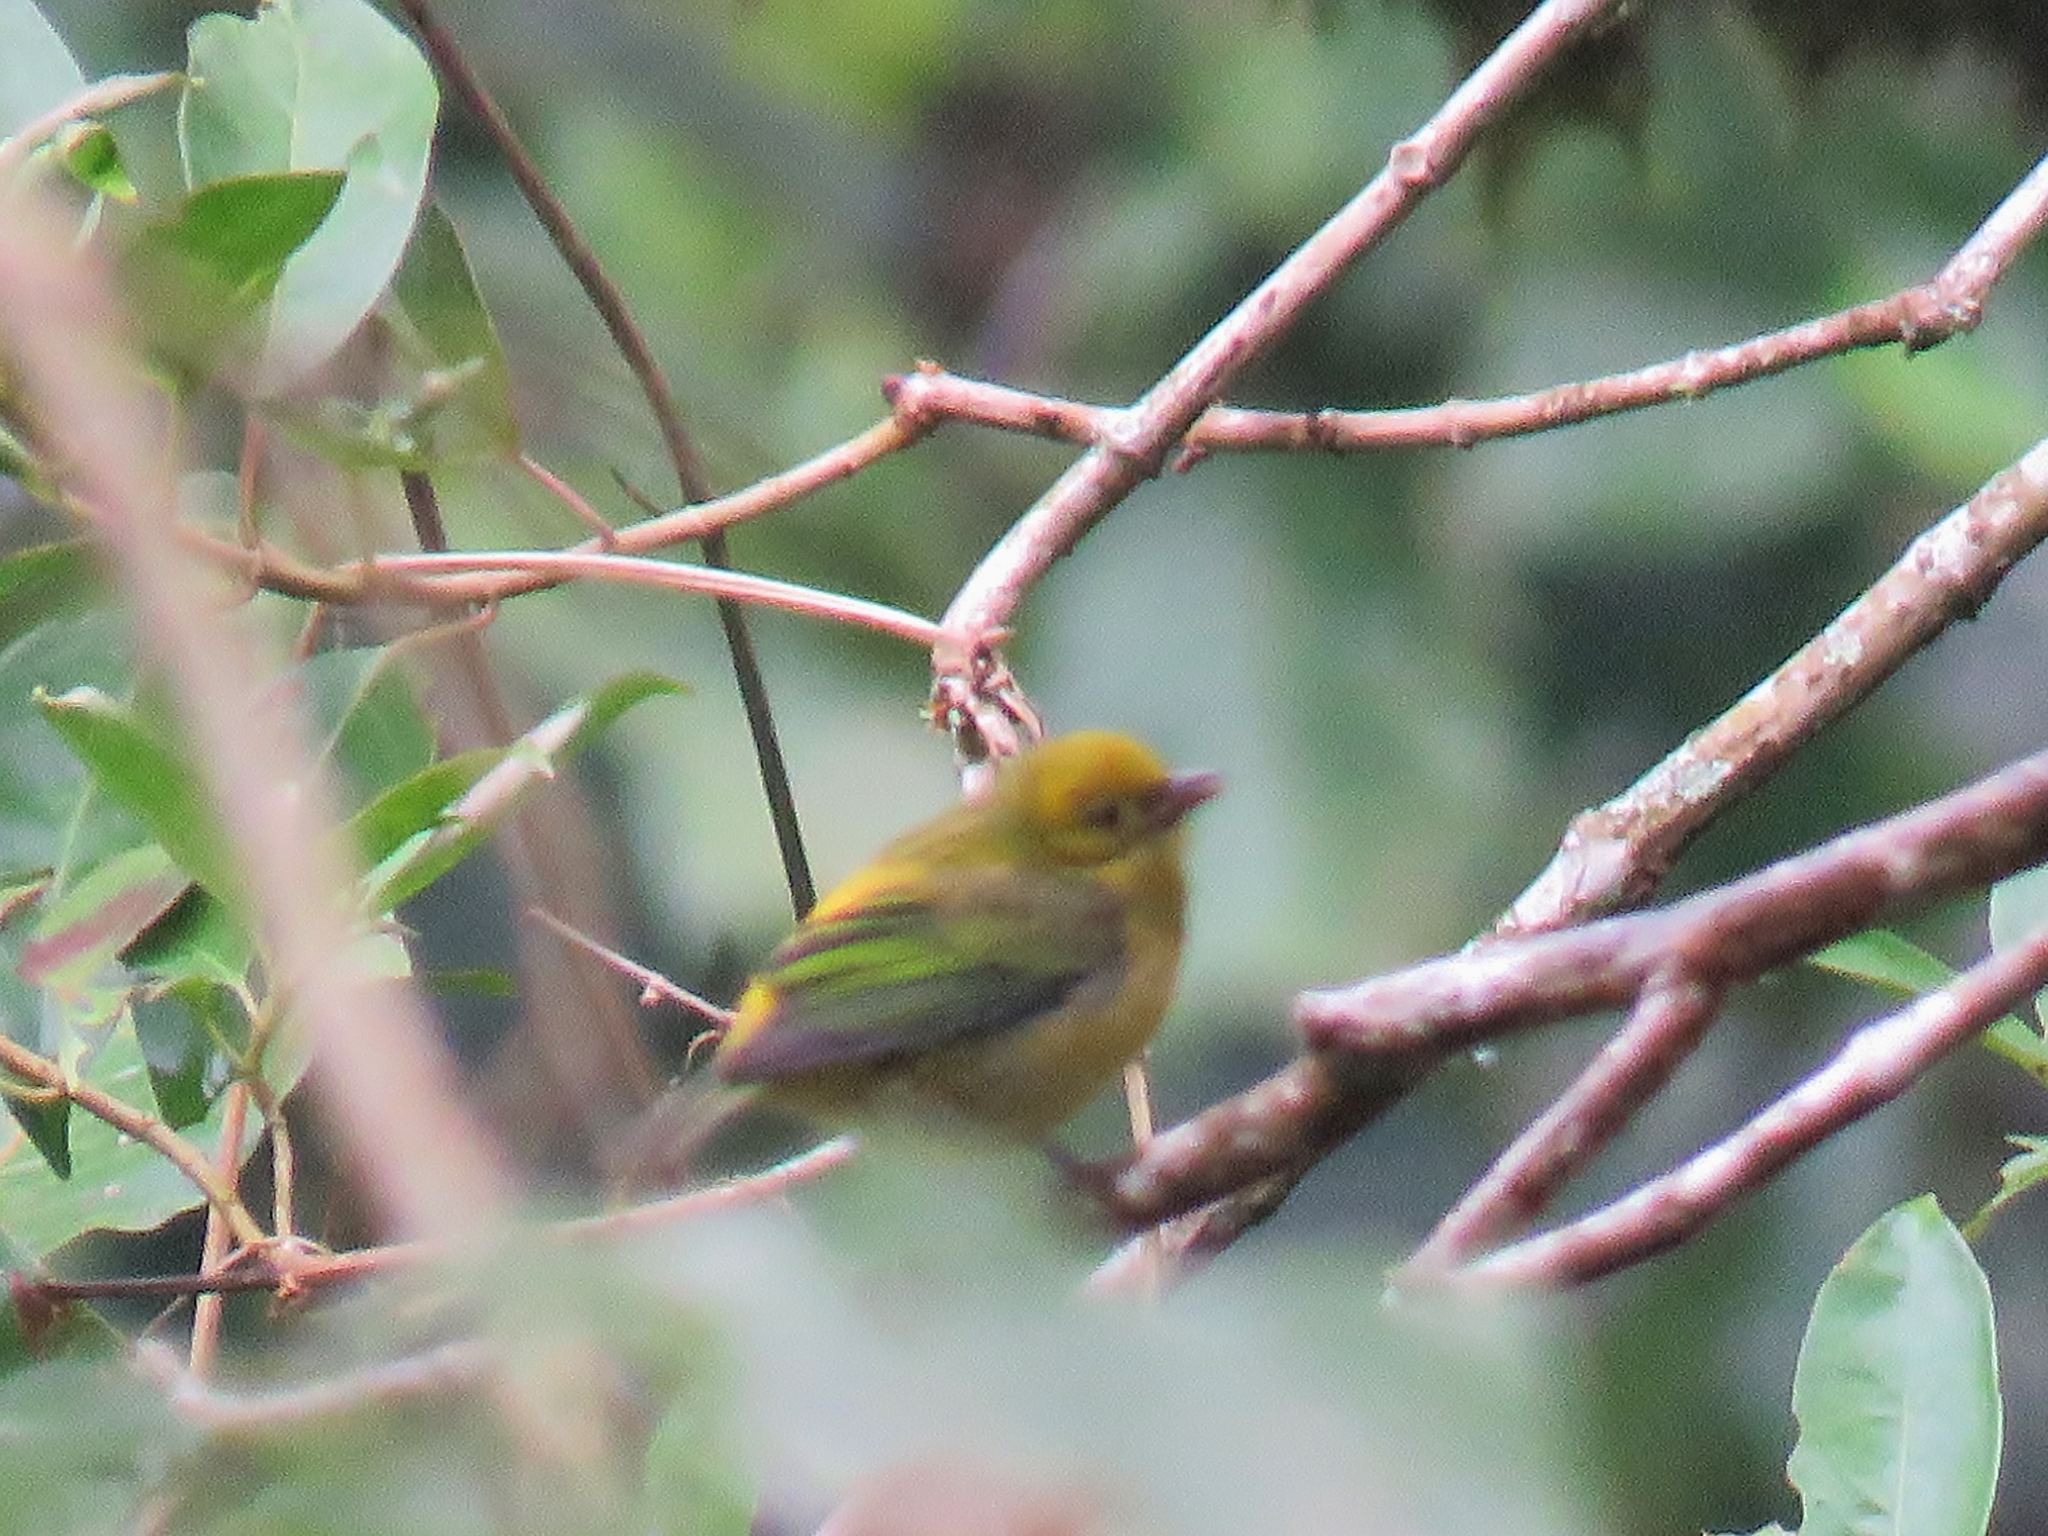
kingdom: Animalia
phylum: Chordata
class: Aves
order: Passeriformes
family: Thraupidae
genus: Tangara
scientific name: Tangara icterocephala
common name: Silver-throated tanager
